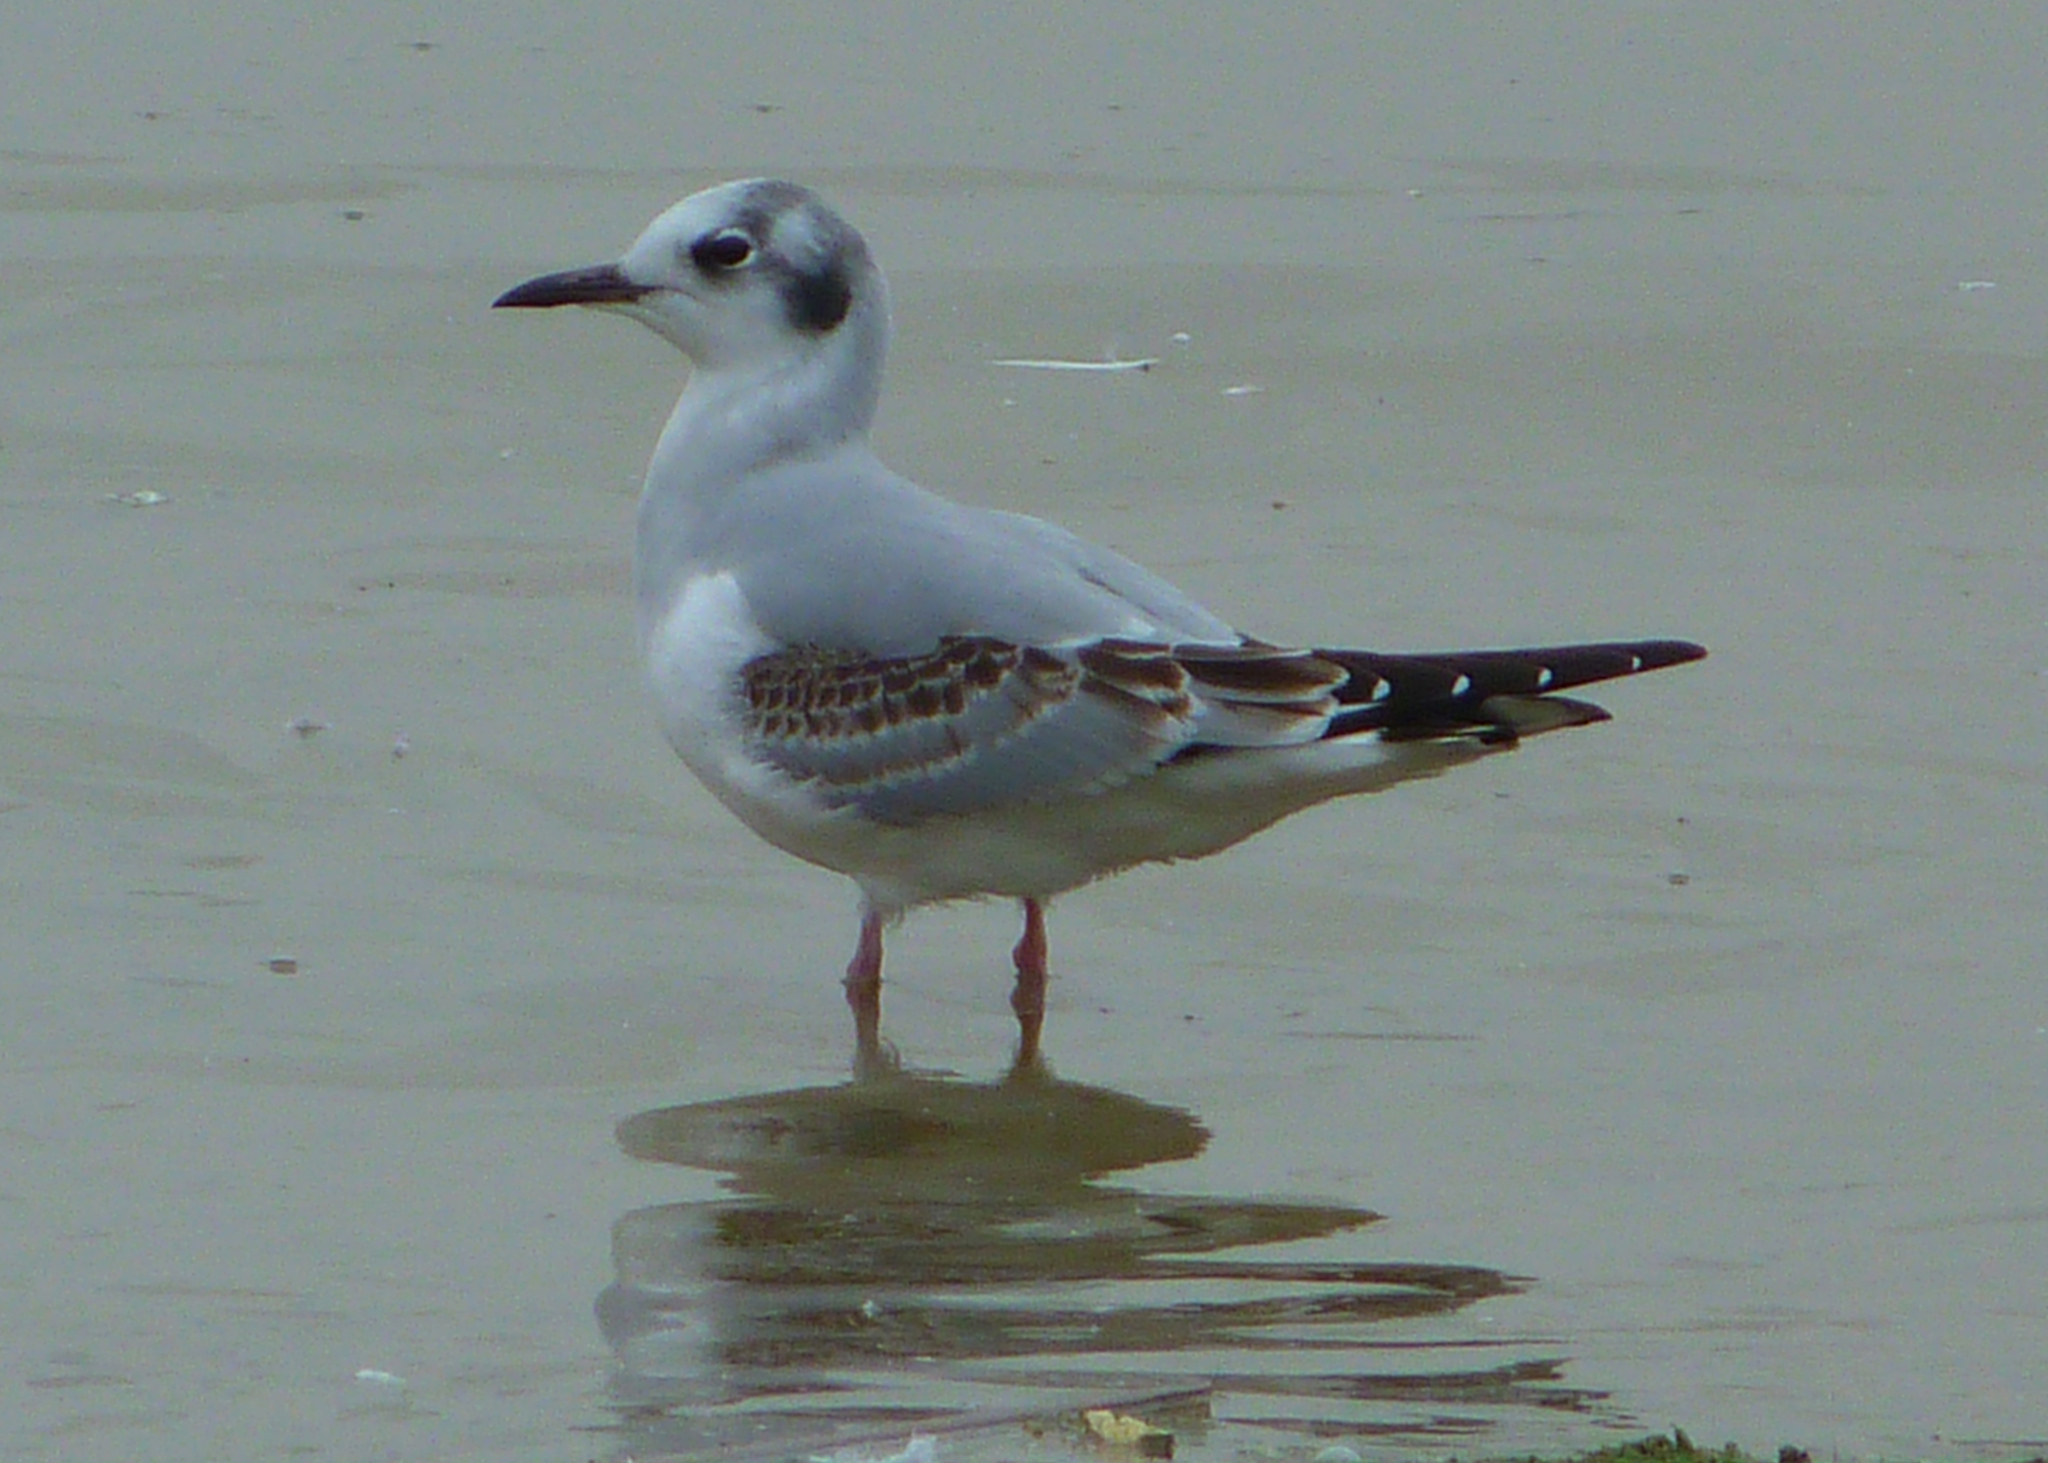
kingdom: Animalia
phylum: Chordata
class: Aves
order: Charadriiformes
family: Laridae
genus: Chroicocephalus
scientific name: Chroicocephalus philadelphia
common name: Bonaparte's gull
